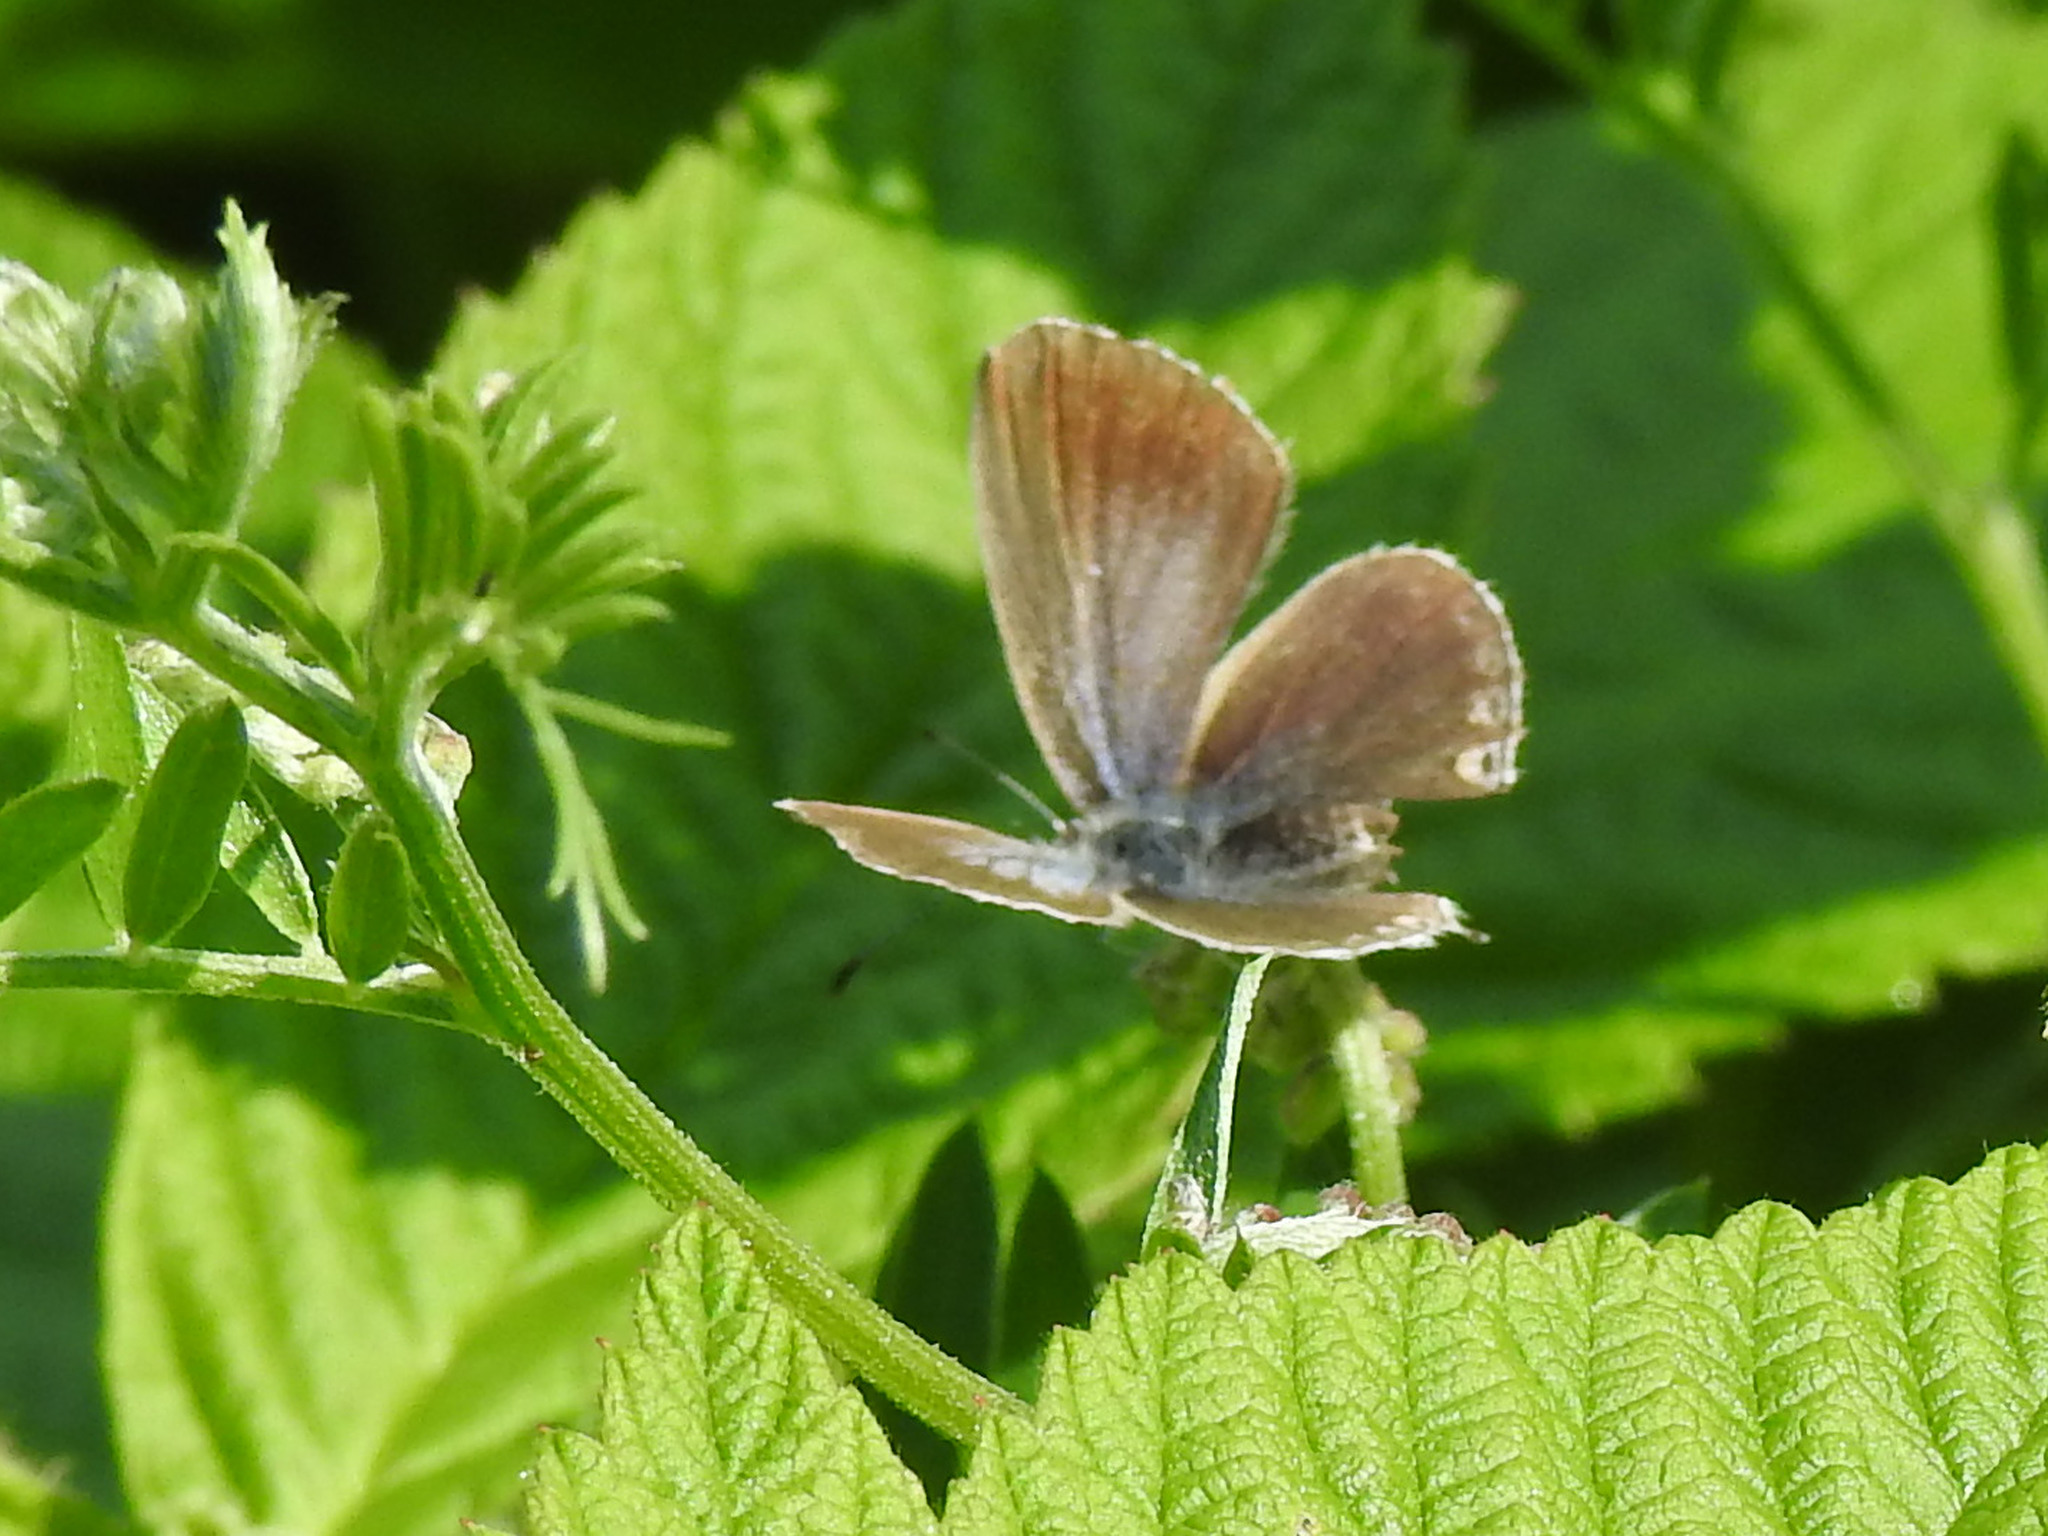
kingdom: Animalia
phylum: Arthropoda
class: Insecta
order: Lepidoptera
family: Lycaenidae
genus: Elkalyce
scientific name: Elkalyce amyntula
